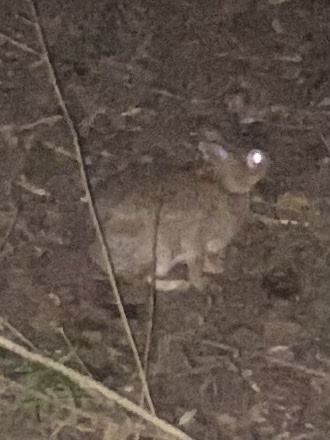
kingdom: Animalia
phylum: Chordata
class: Mammalia
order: Lagomorpha
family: Leporidae
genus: Sylvilagus
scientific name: Sylvilagus floridanus
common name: Eastern cottontail
